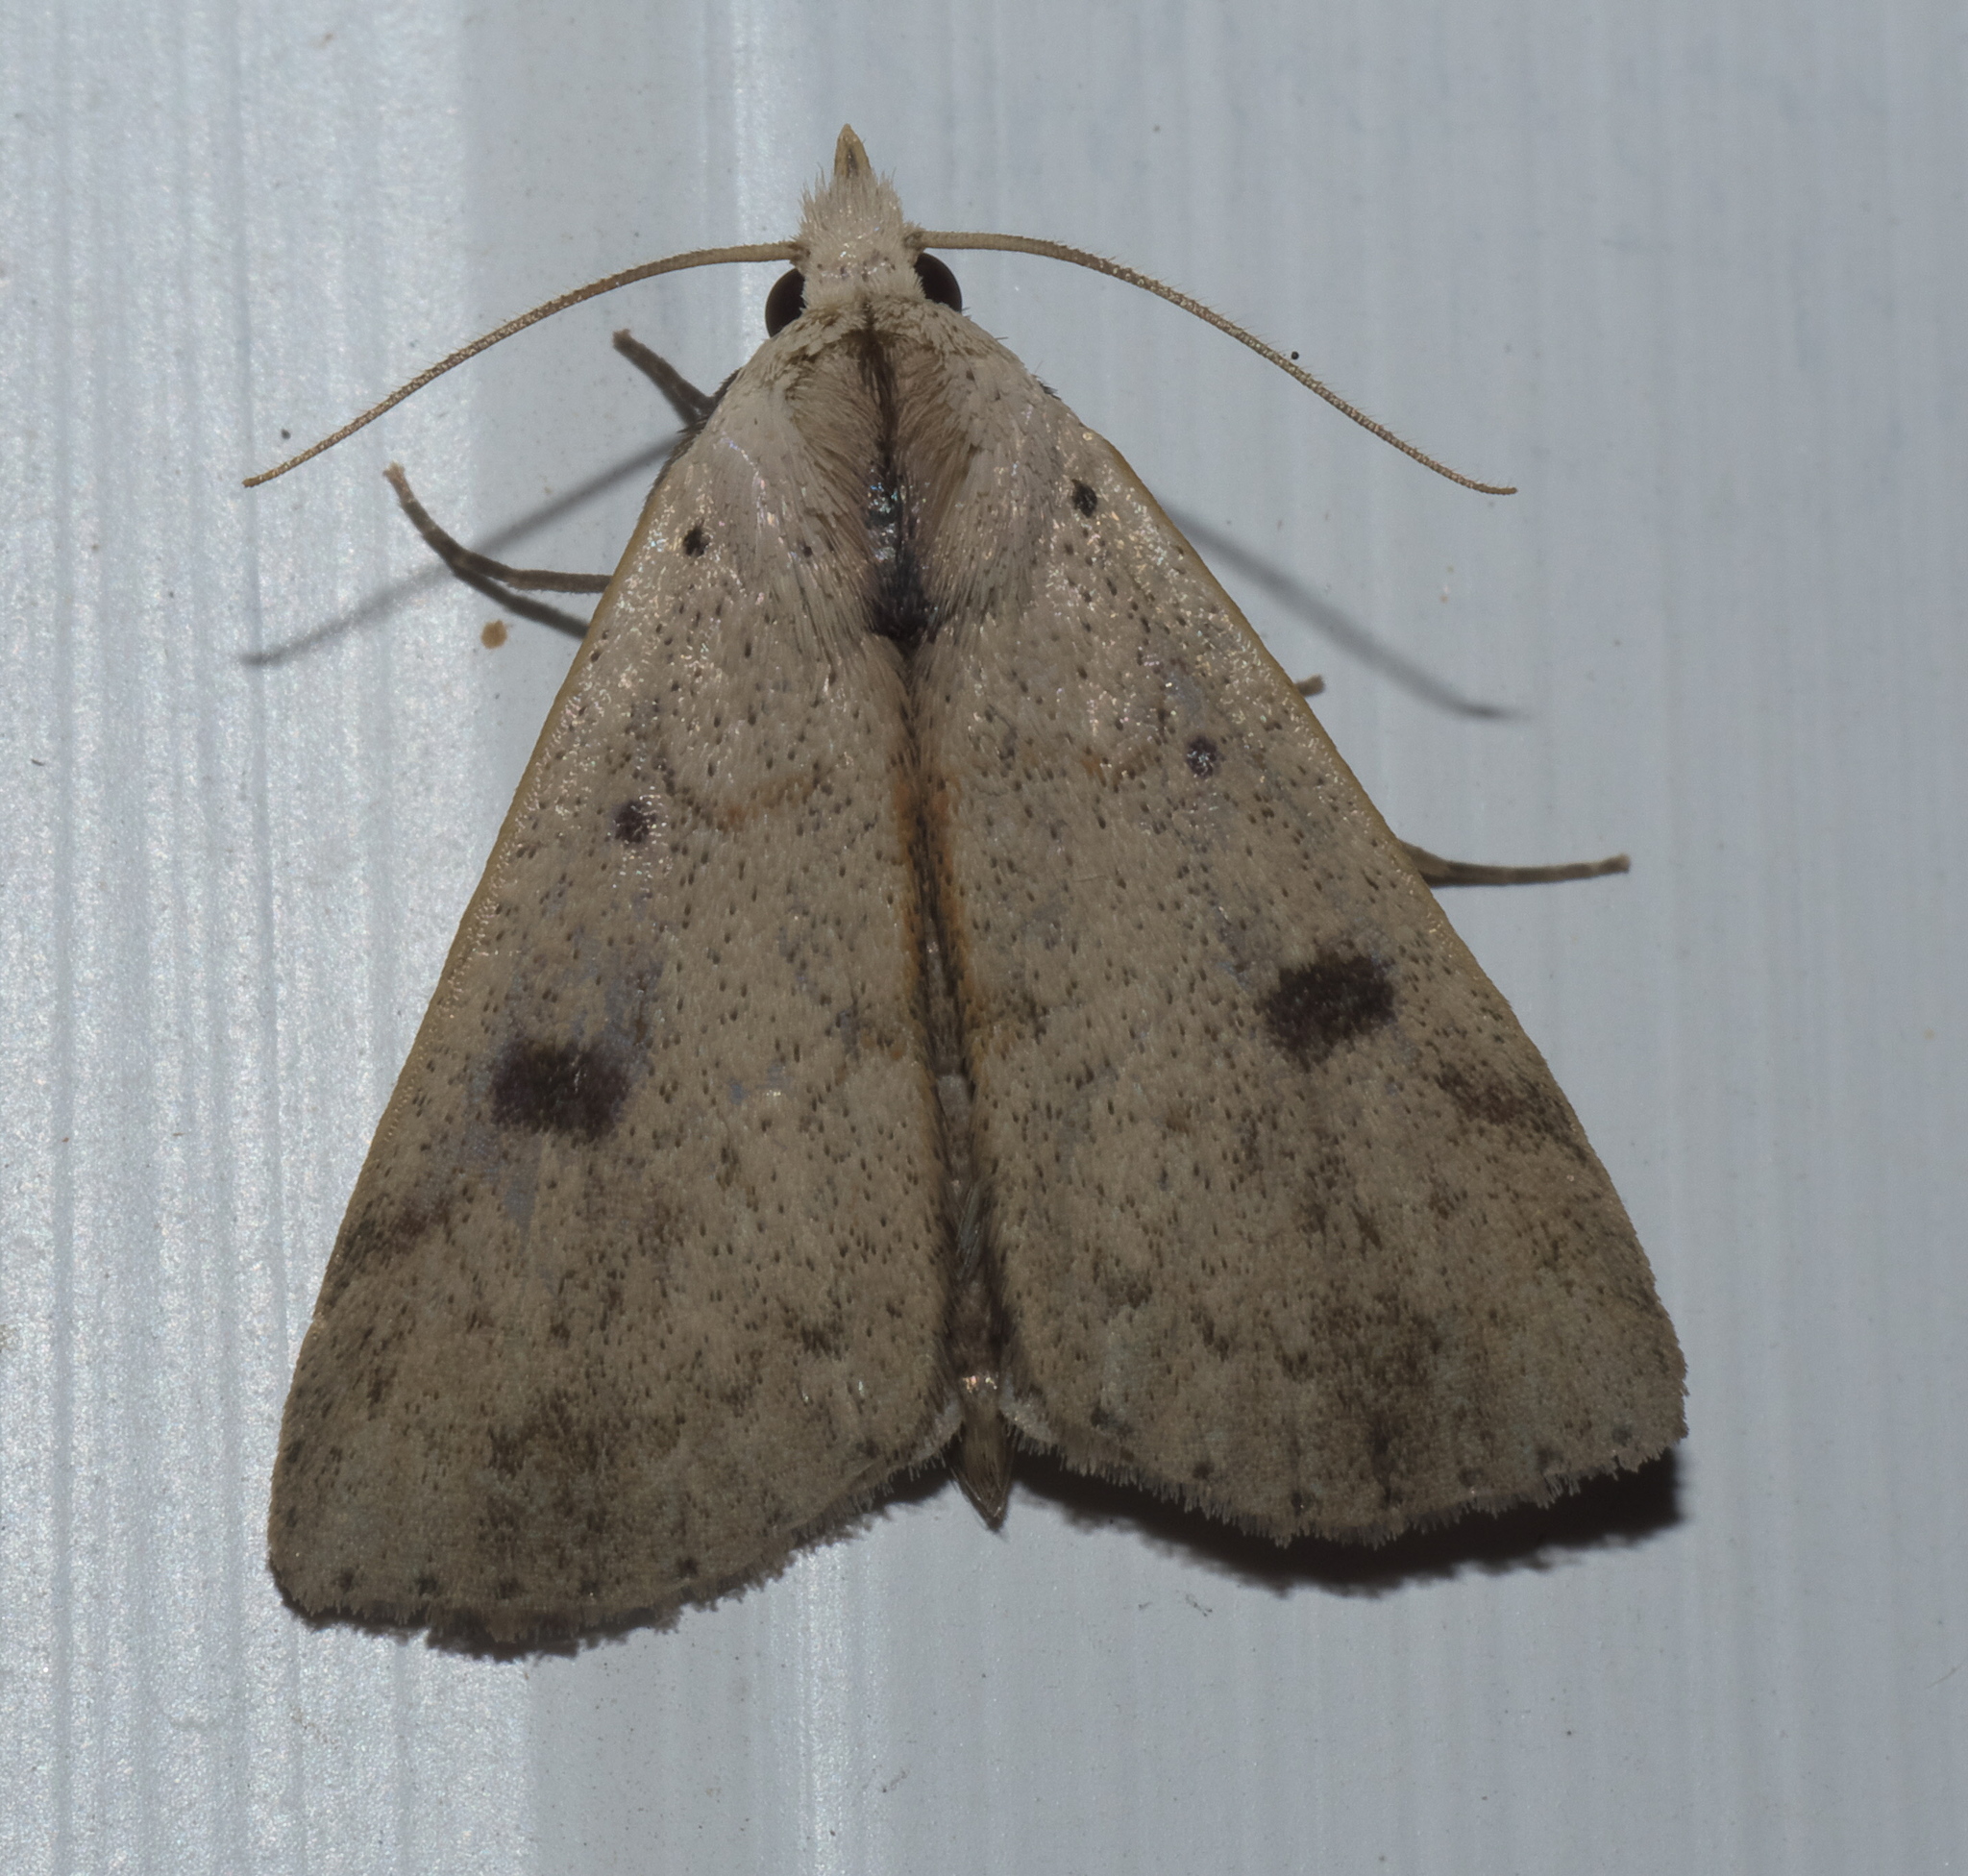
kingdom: Animalia
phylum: Arthropoda
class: Insecta
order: Lepidoptera
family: Erebidae
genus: Scolecocampa
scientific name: Scolecocampa liburna
